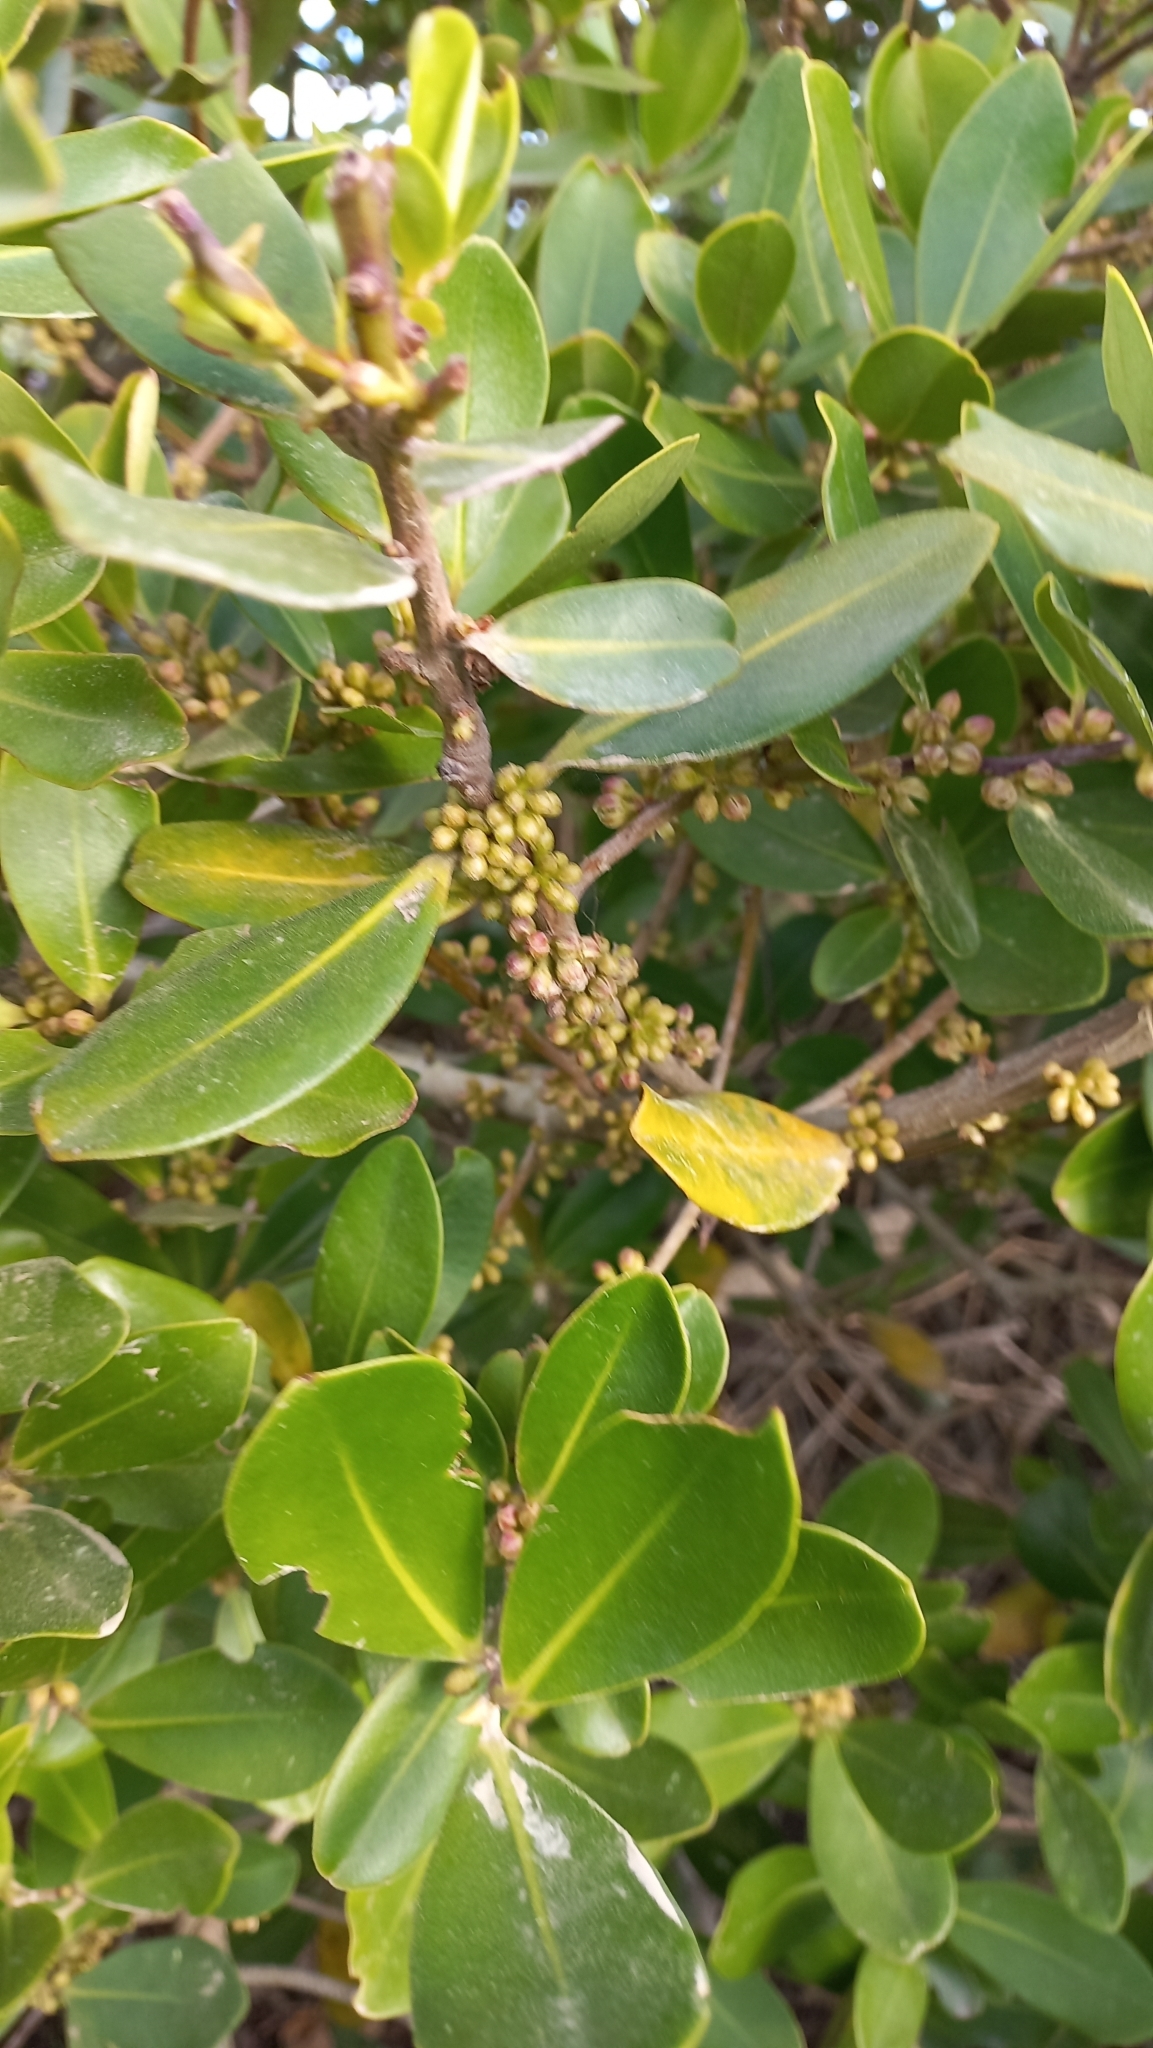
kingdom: Plantae
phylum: Tracheophyta
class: Magnoliopsida
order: Ericales
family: Primulaceae
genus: Myrsine
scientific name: Myrsine parvifolia
